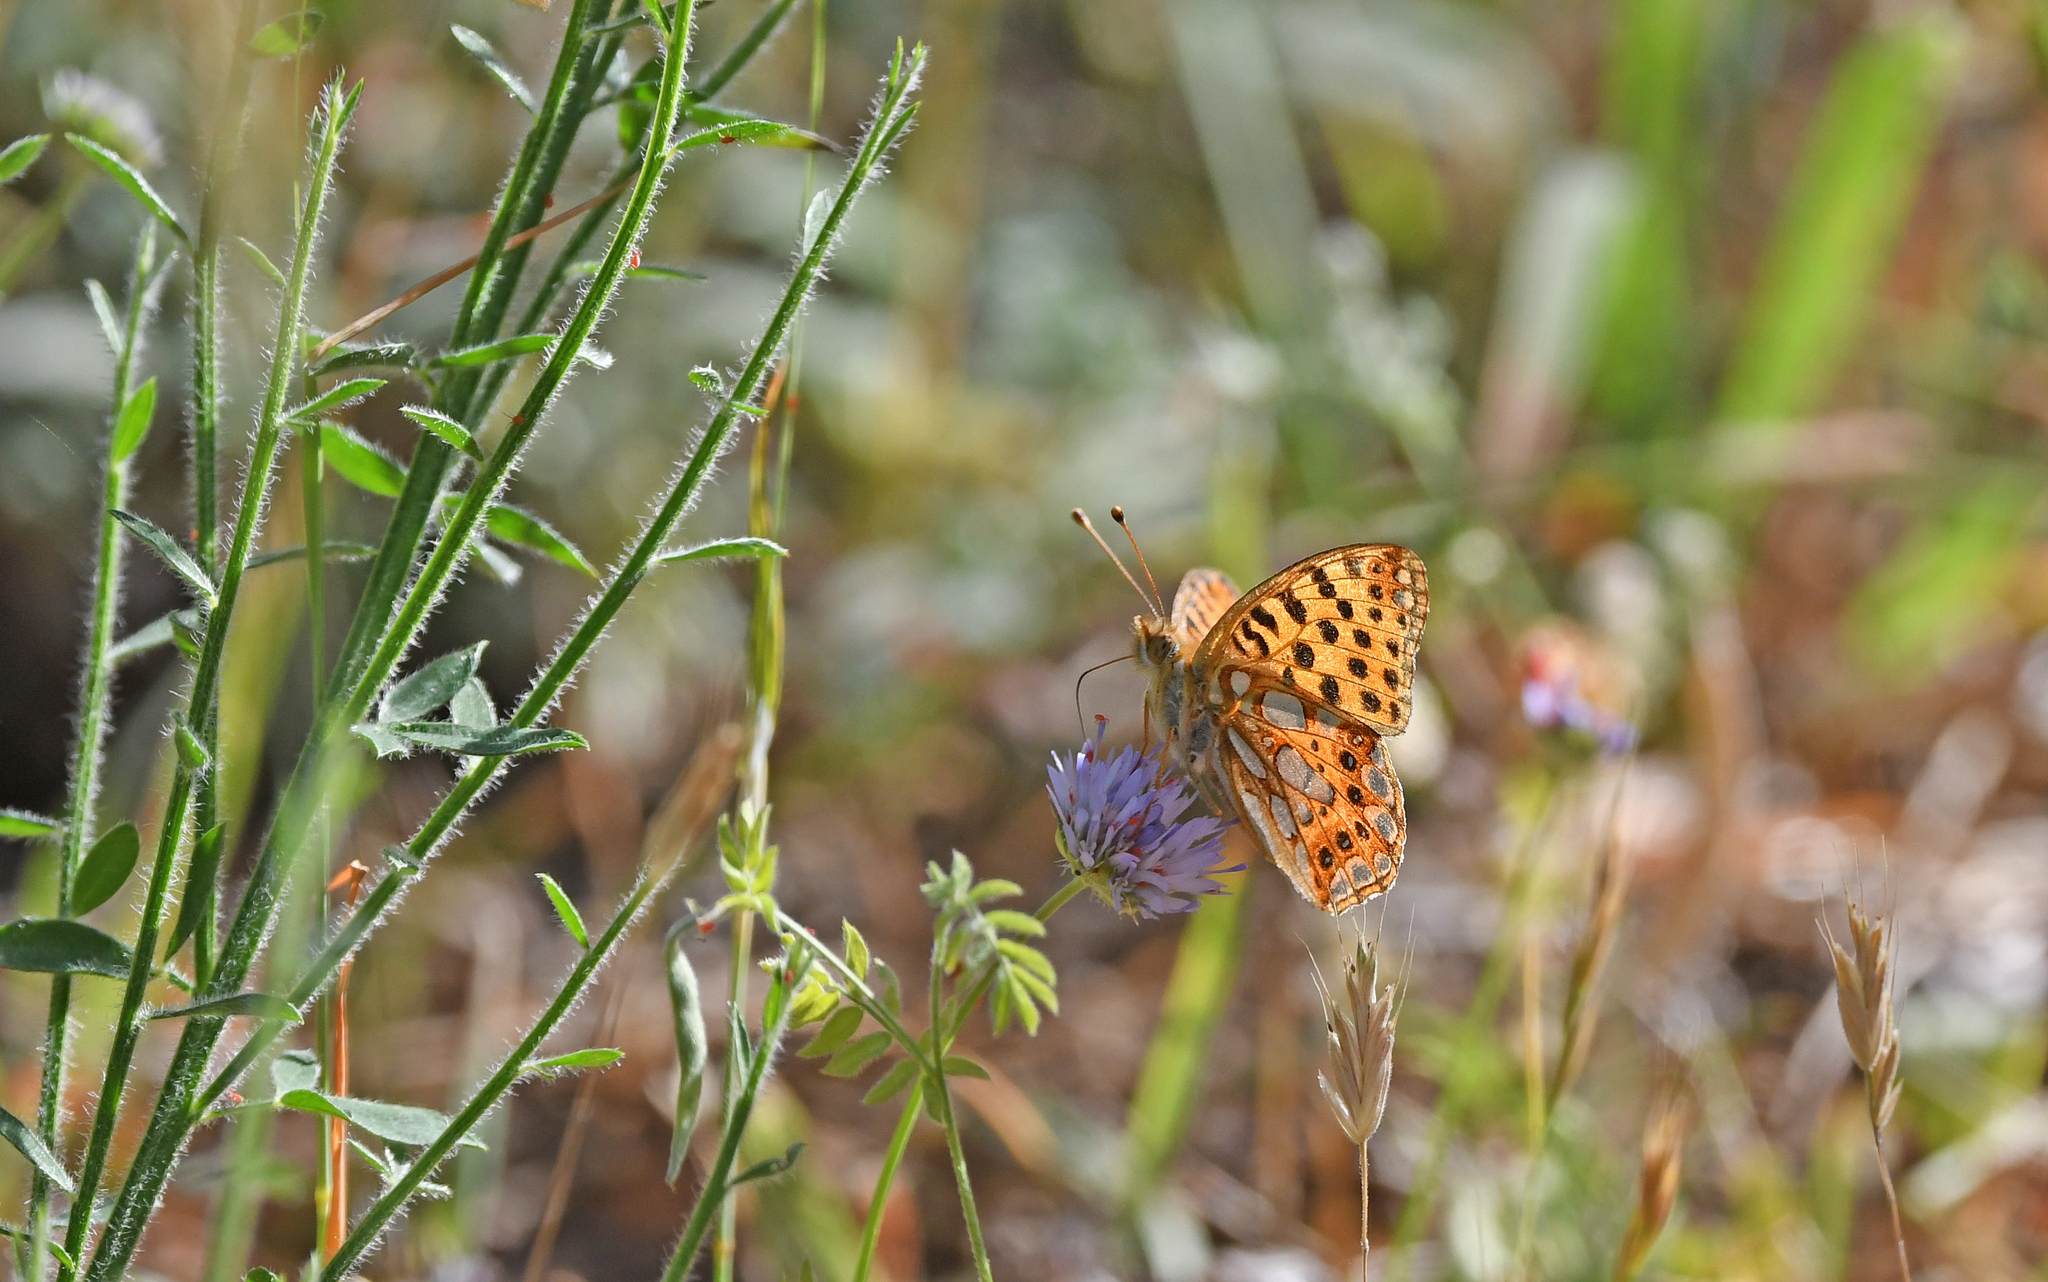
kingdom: Animalia
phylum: Arthropoda
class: Insecta
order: Lepidoptera
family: Nymphalidae
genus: Issoria
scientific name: Issoria lathonia
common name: Queen of spain fritillary
